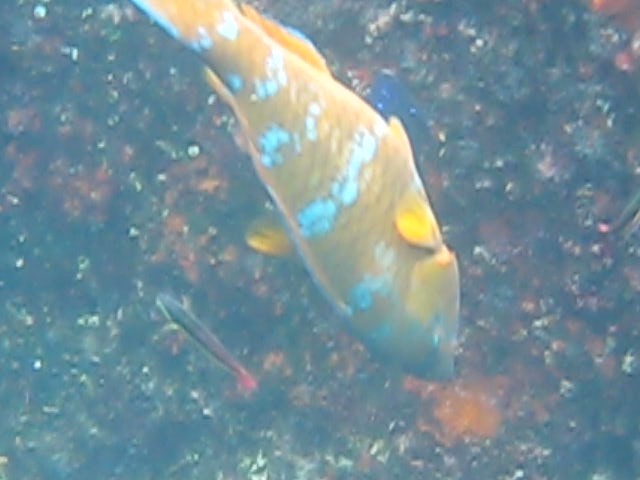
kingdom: Animalia
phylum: Chordata
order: Perciformes
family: Scaridae
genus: Scarus
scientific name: Scarus ghobban
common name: Blue-barred parrotfish
